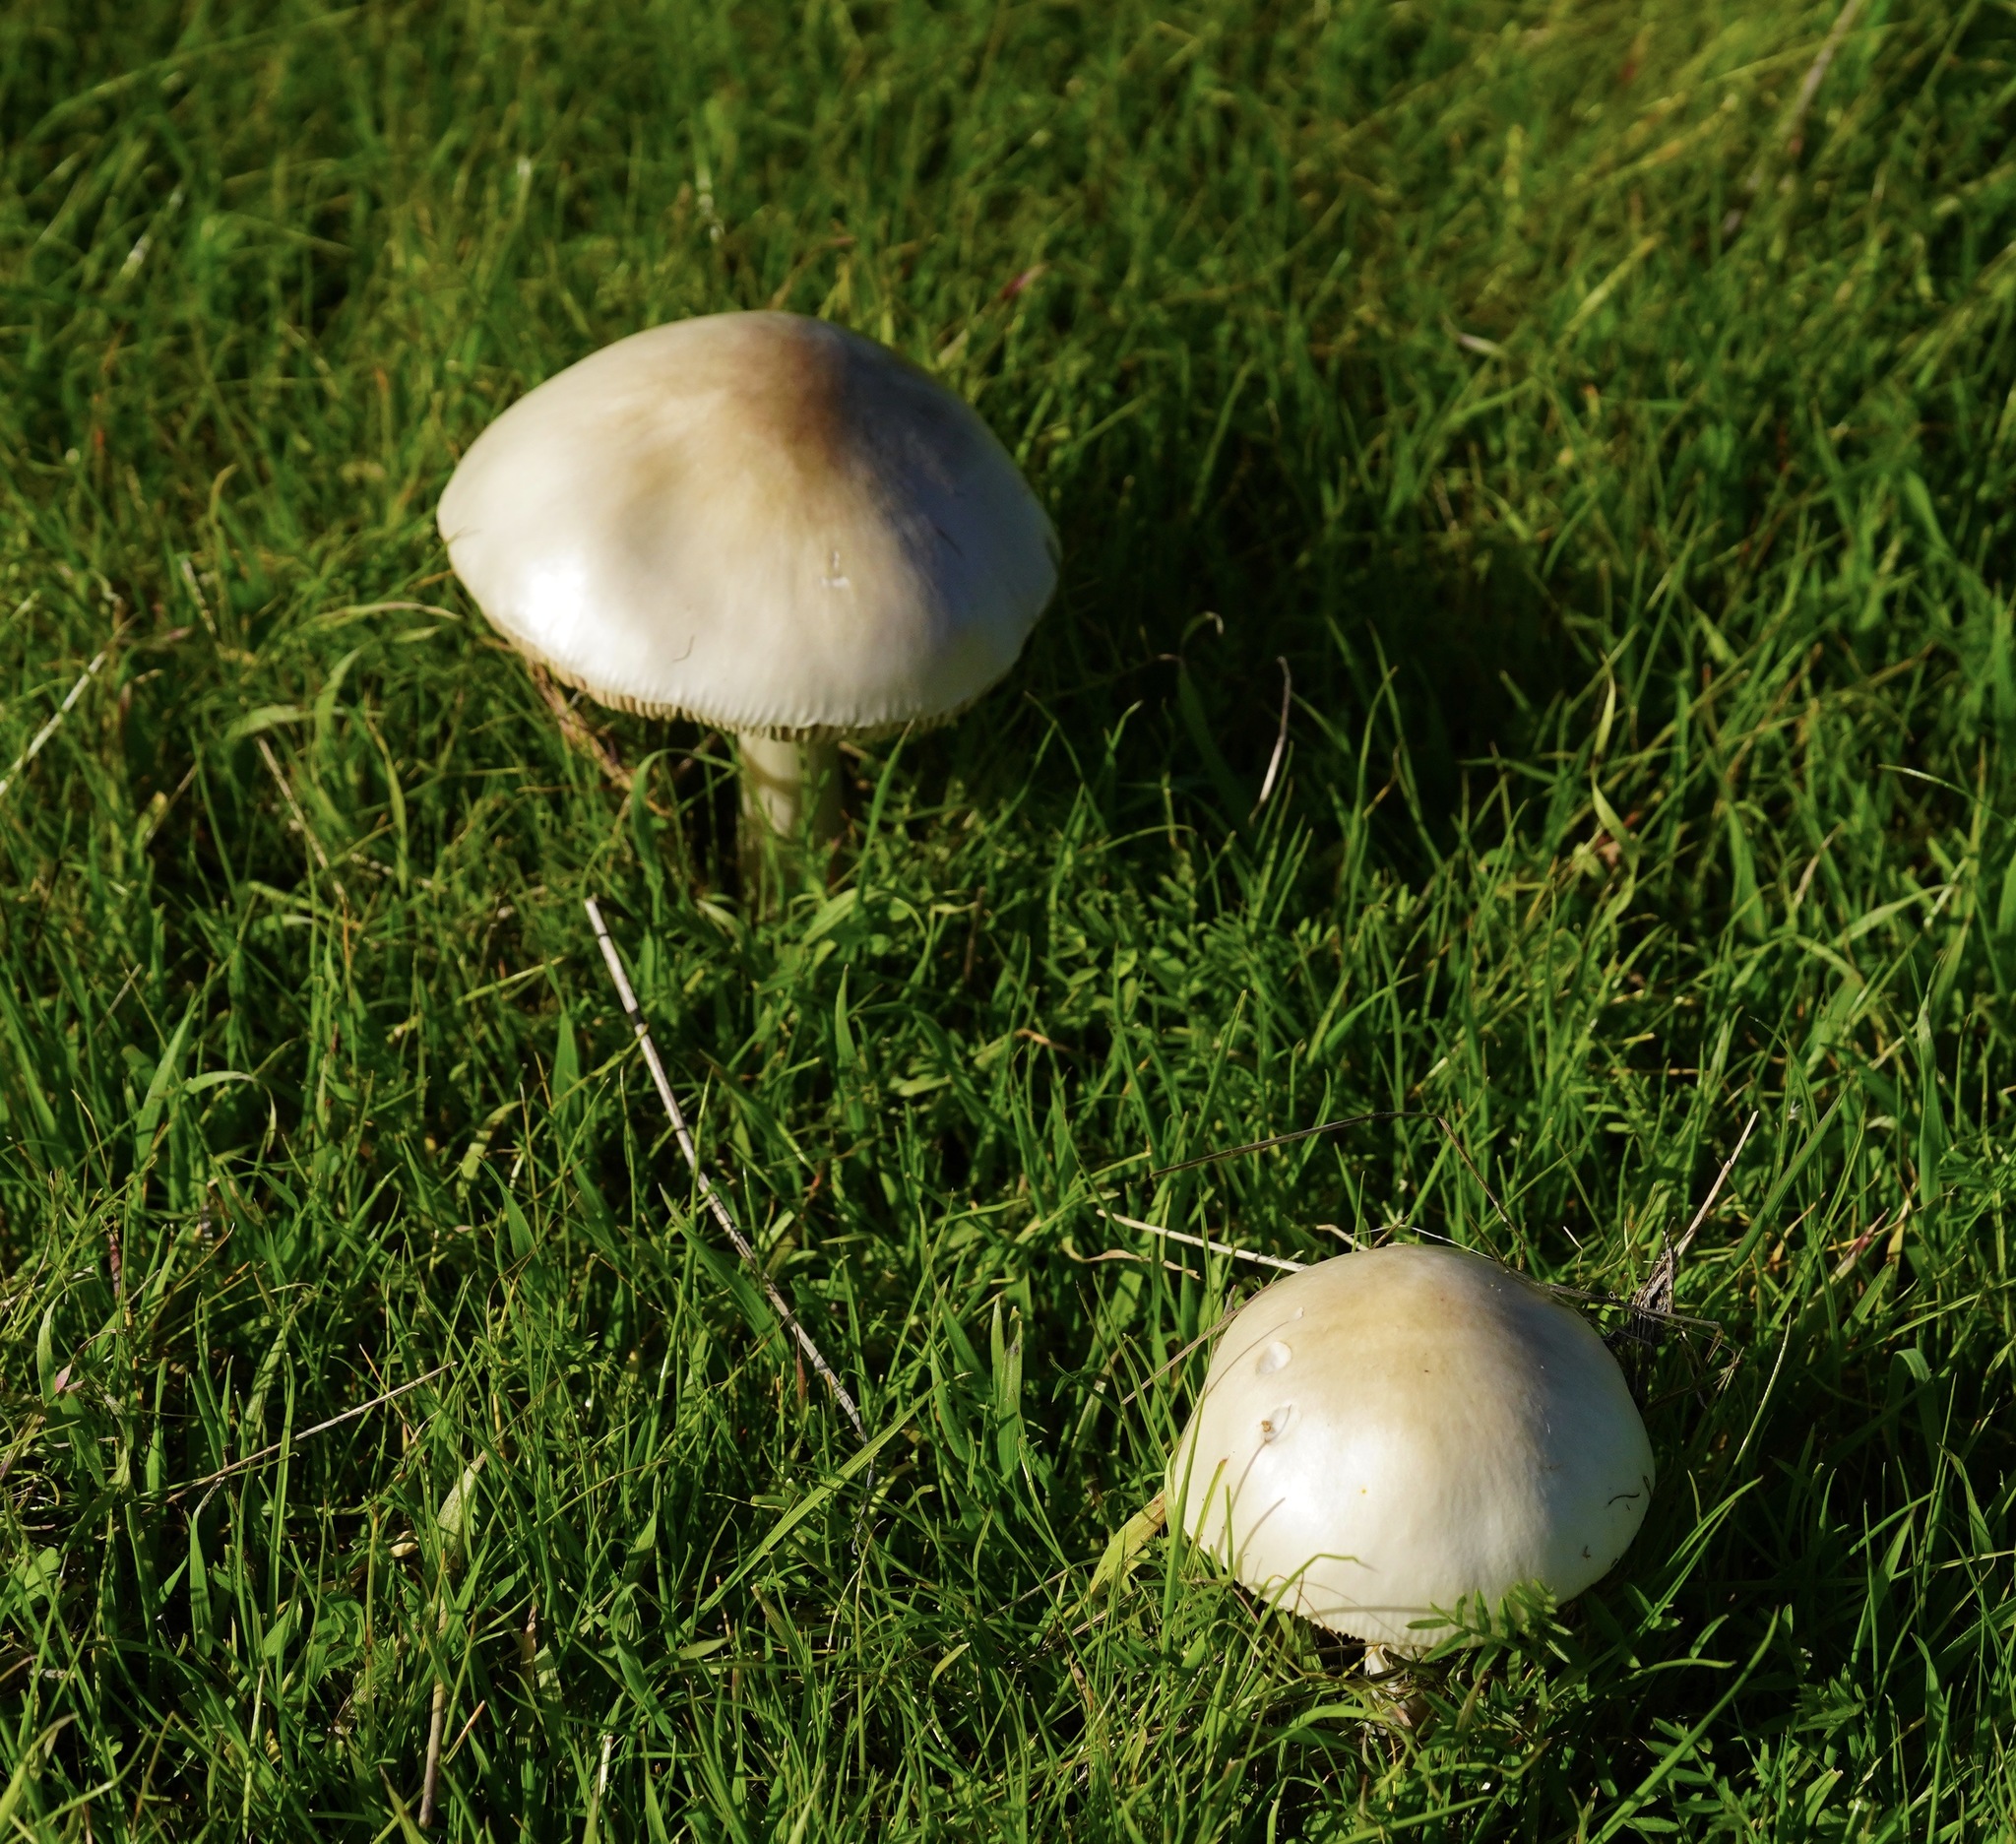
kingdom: Fungi
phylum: Basidiomycota
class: Agaricomycetes
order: Agaricales
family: Pluteaceae
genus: Volvopluteus
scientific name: Volvopluteus gloiocephalus
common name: Stubble rosegill
